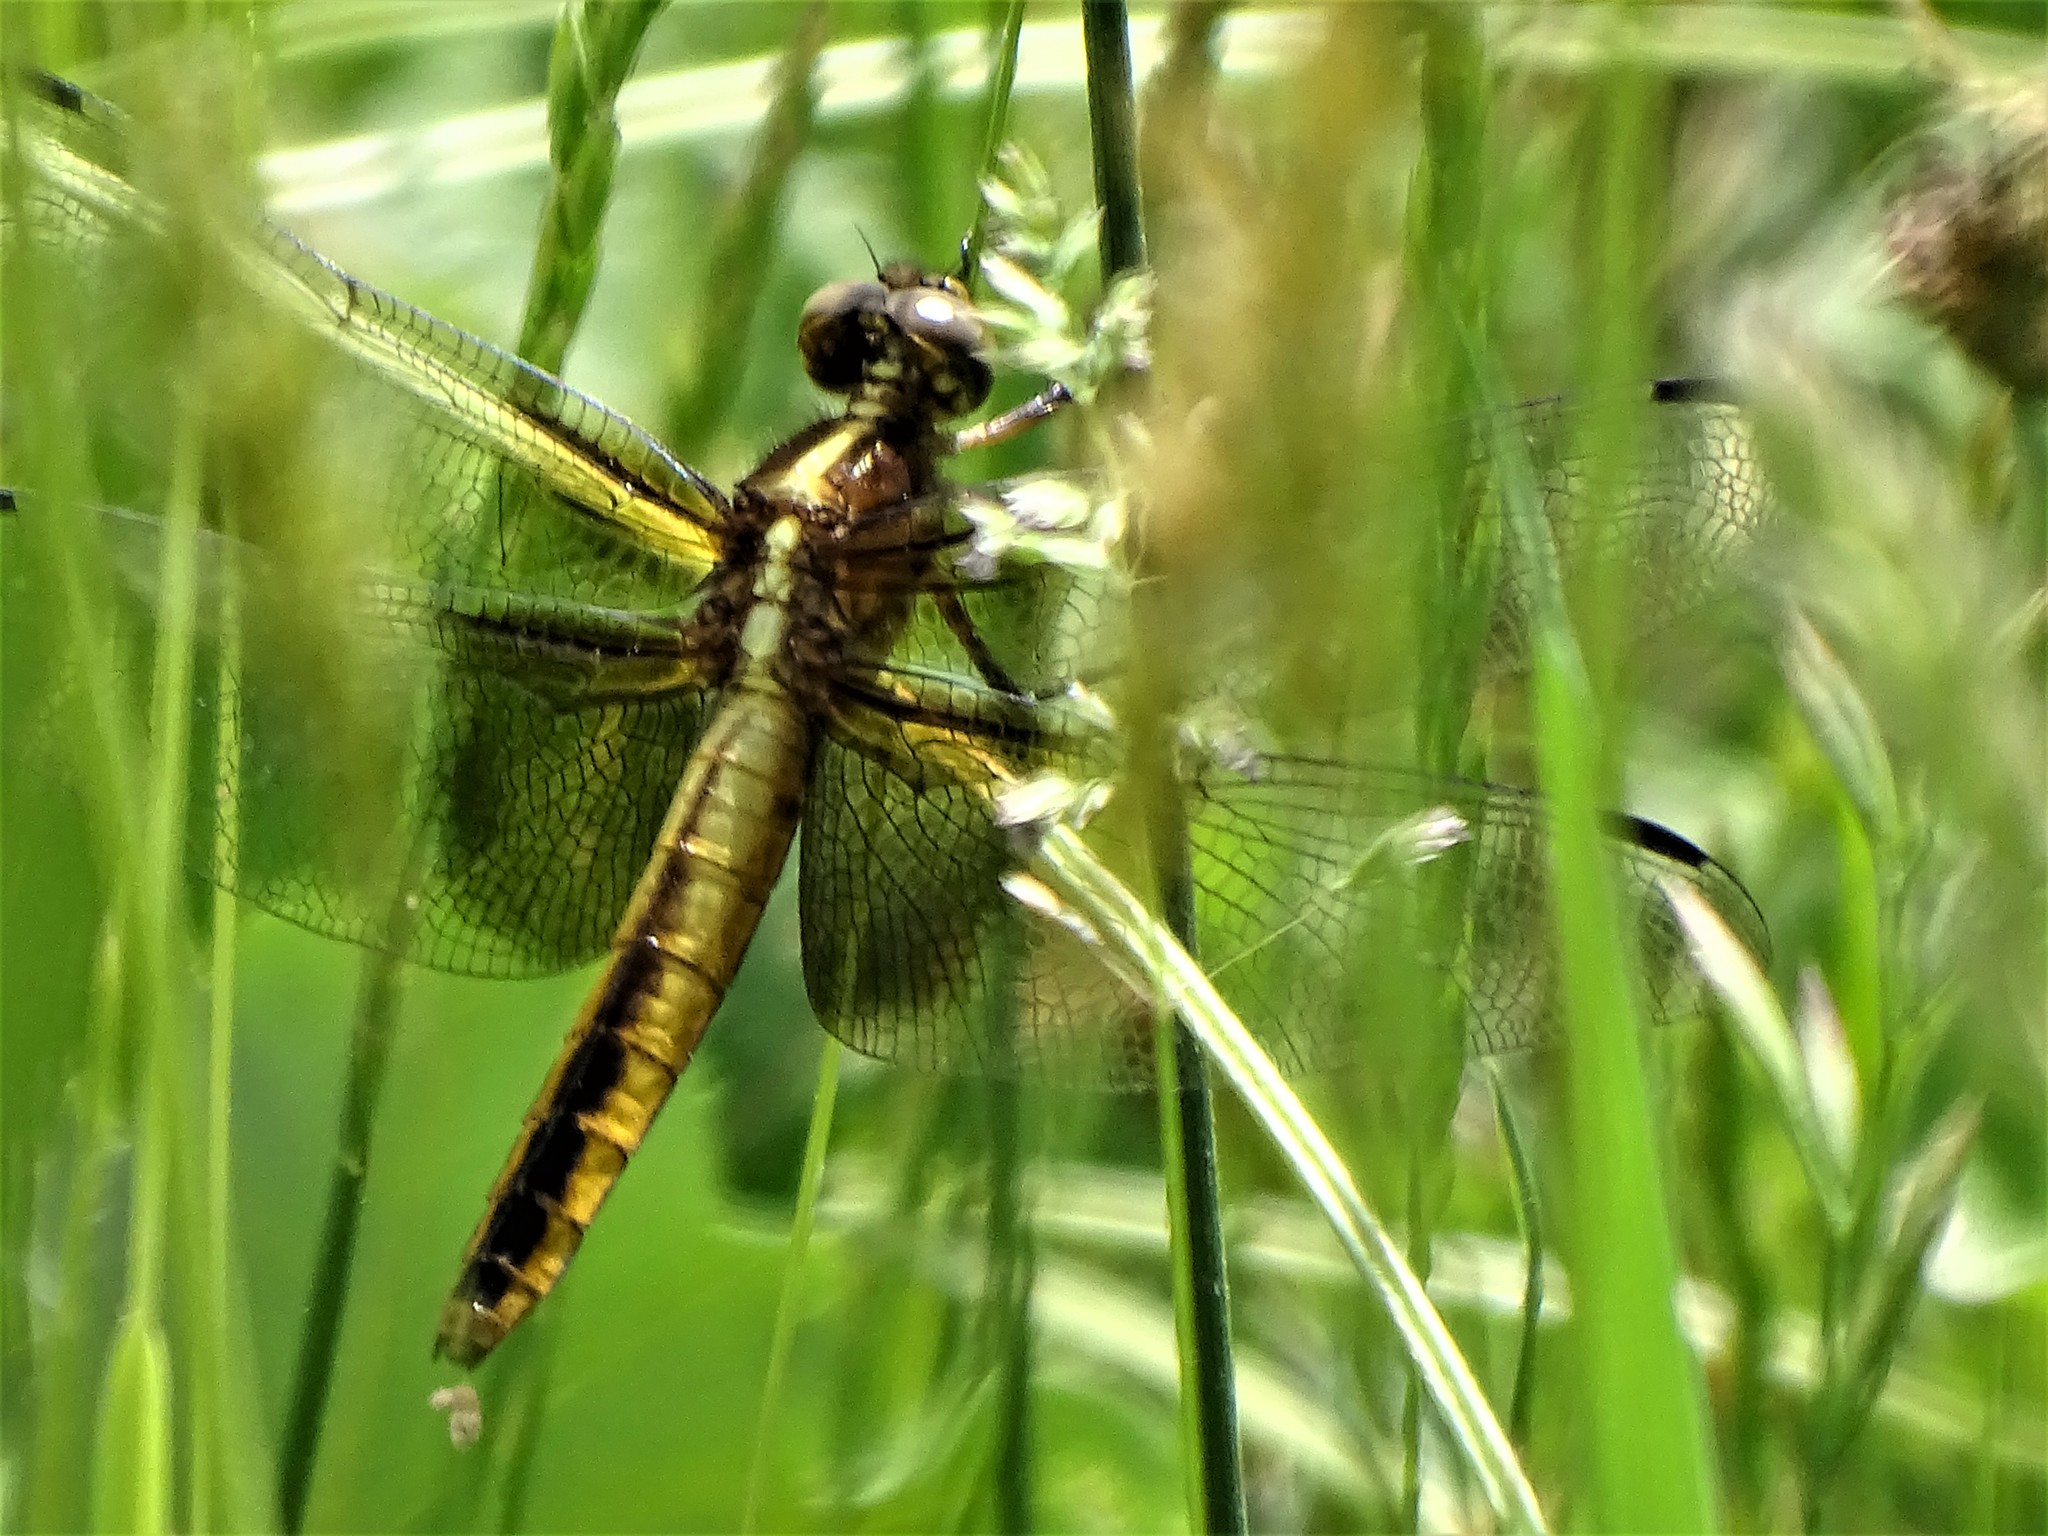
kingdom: Animalia
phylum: Arthropoda
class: Insecta
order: Odonata
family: Libellulidae
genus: Libellula
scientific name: Libellula luctuosa
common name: Widow skimmer
